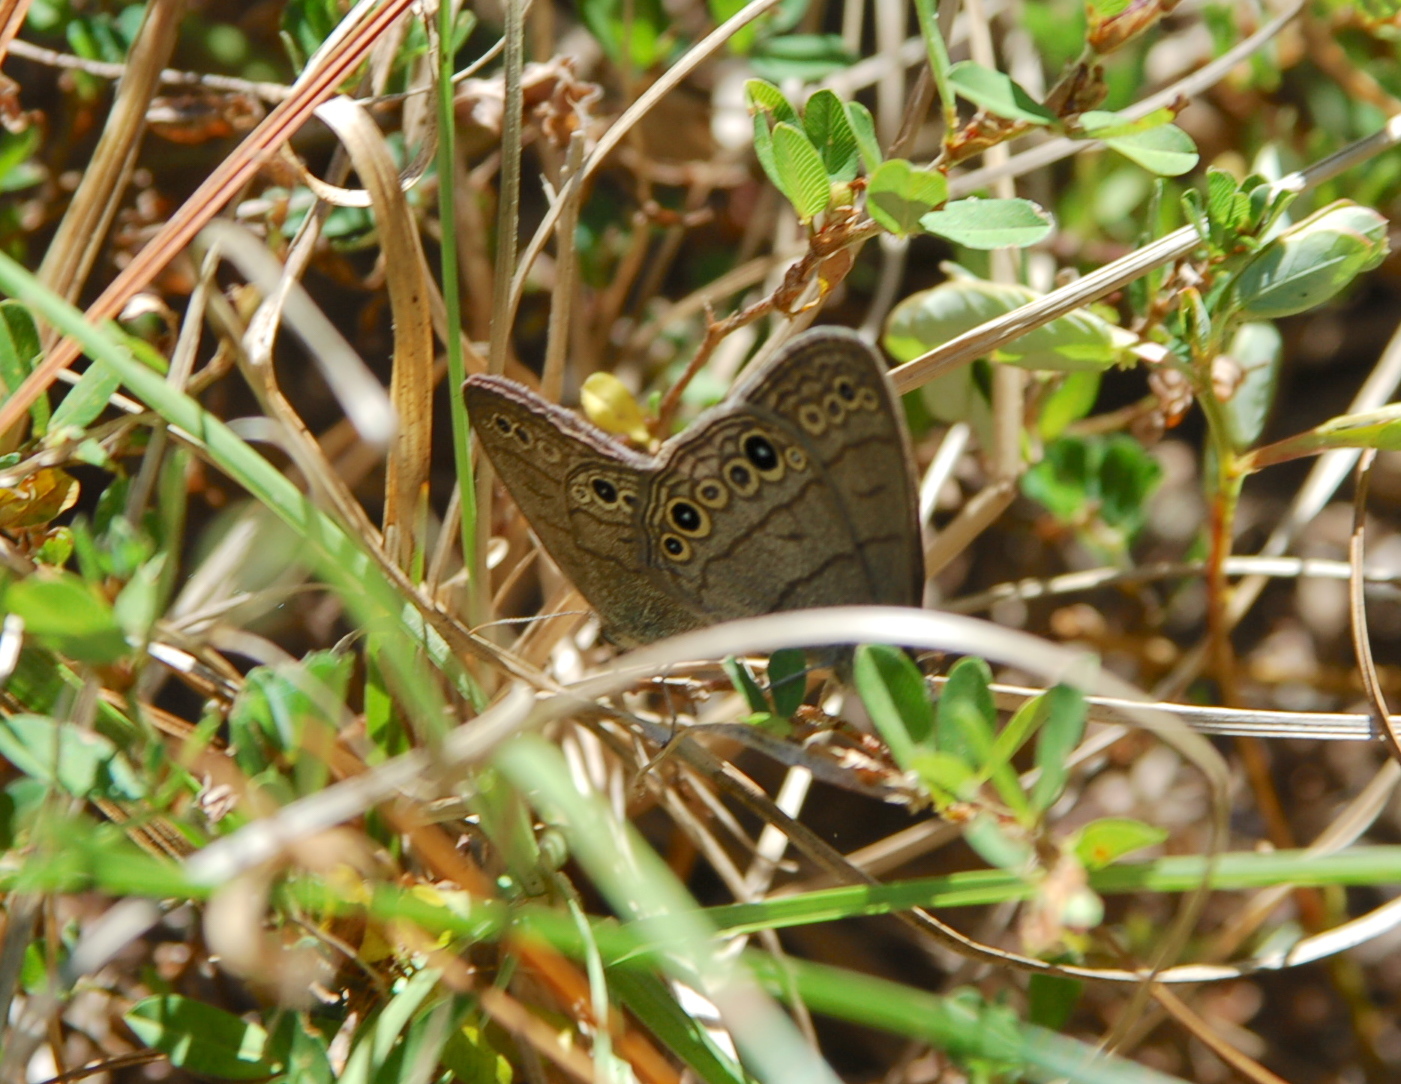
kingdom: Animalia
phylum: Arthropoda
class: Insecta
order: Lepidoptera
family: Nymphalidae
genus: Hermeuptychia
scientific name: Hermeuptychia hermes
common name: Hermes satyr
